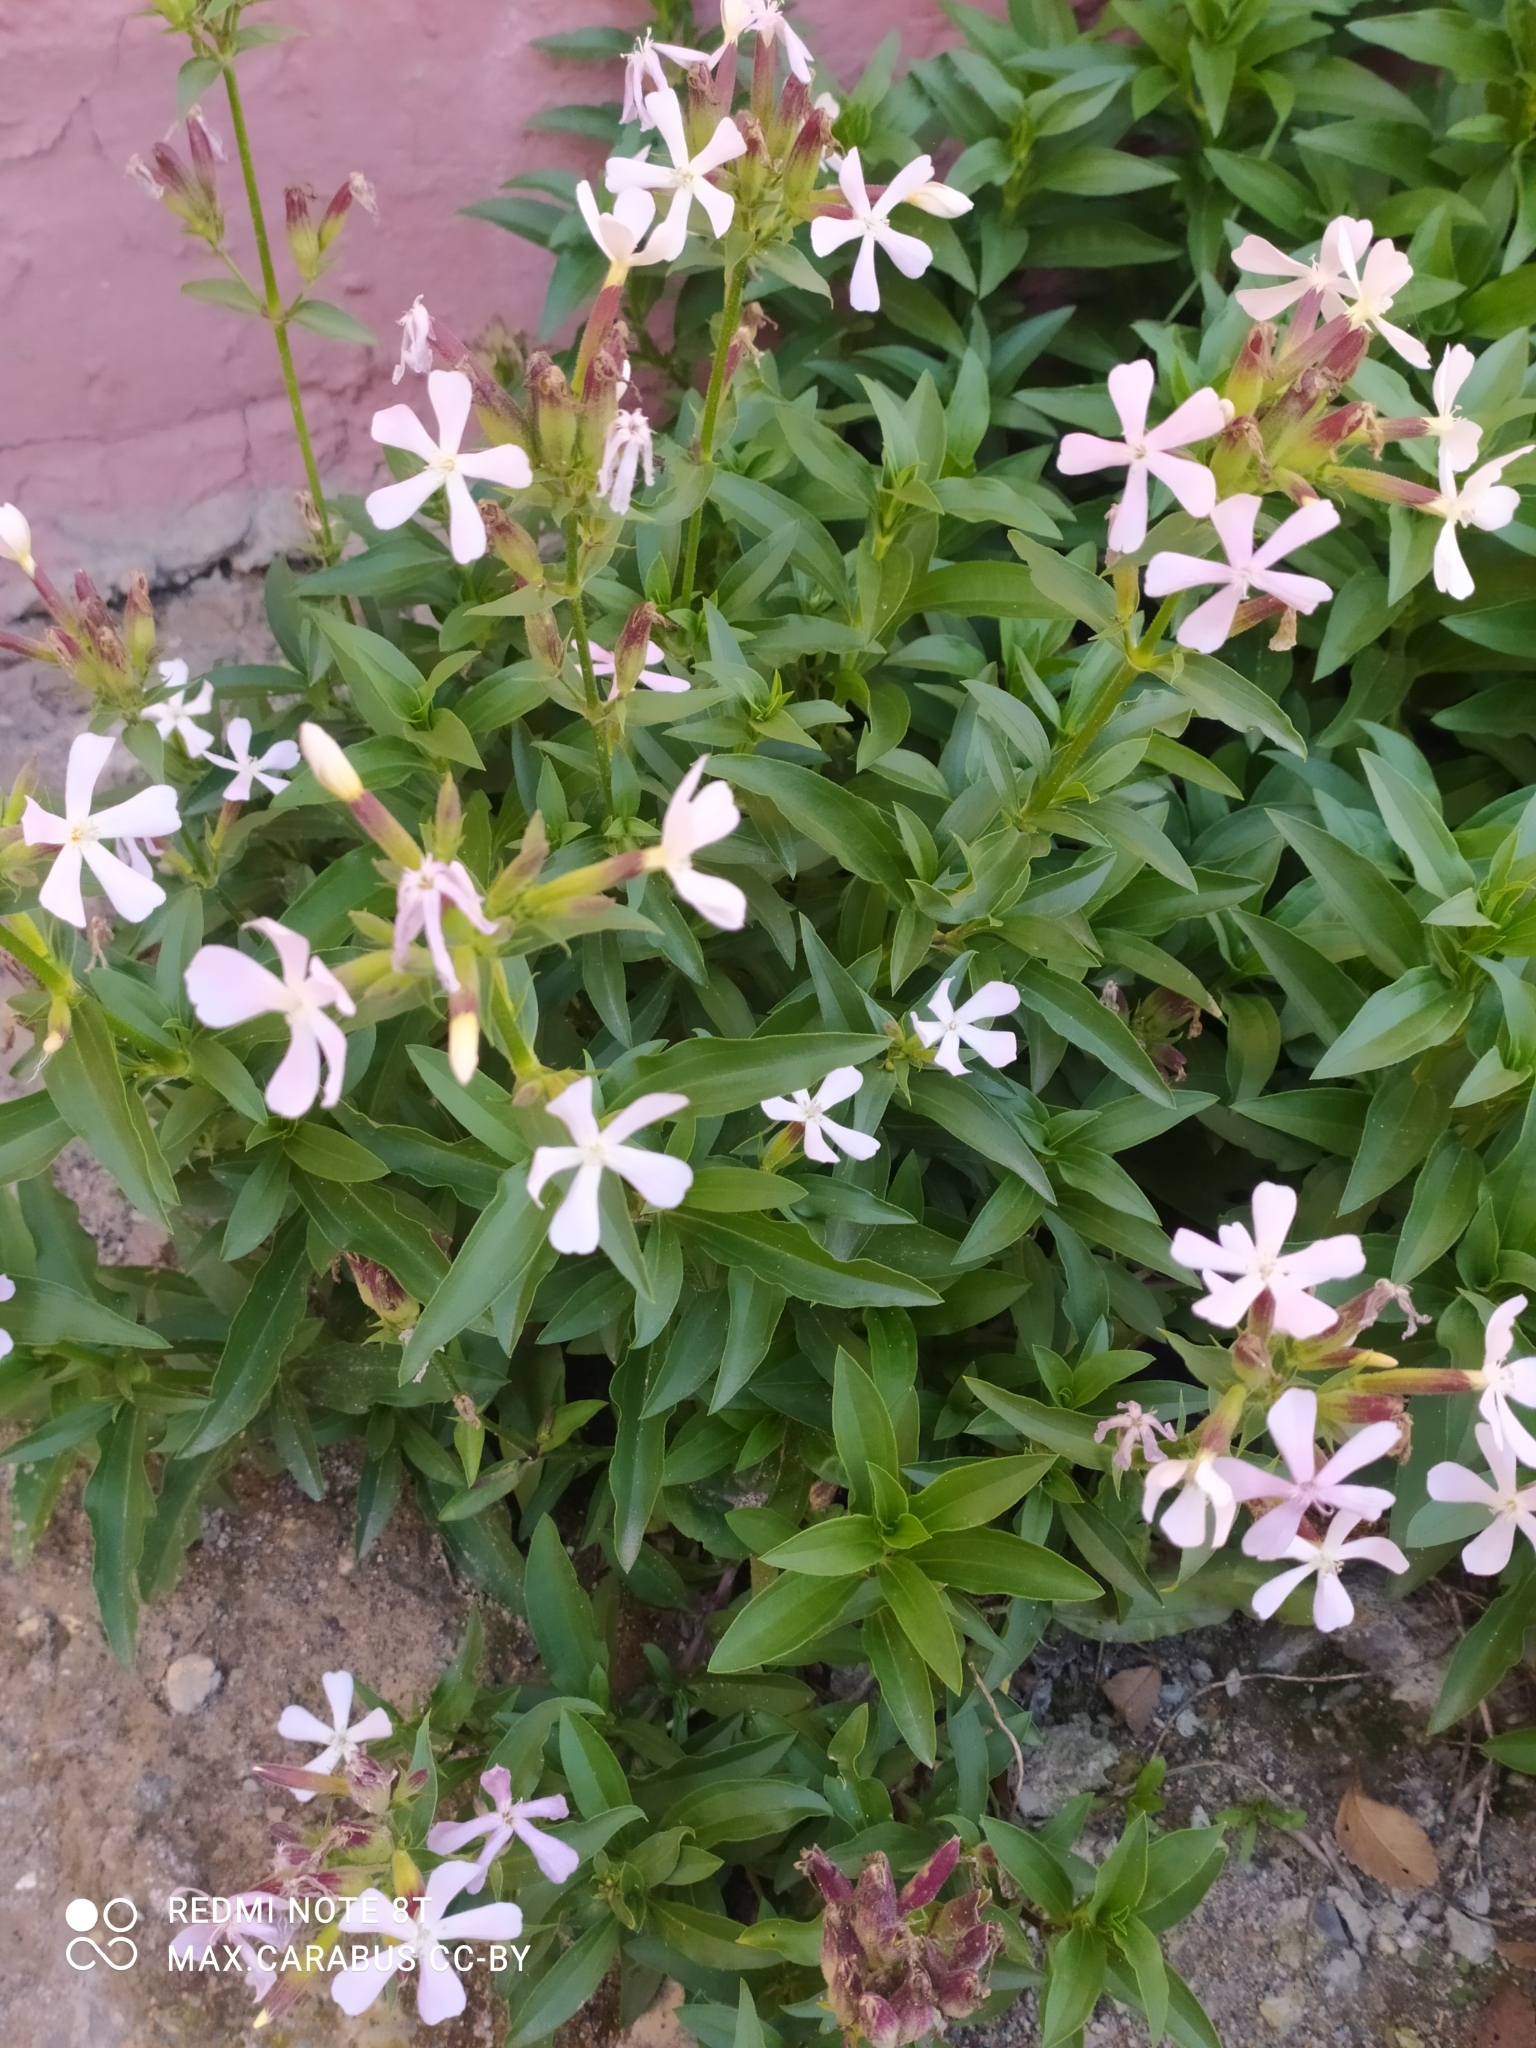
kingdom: Plantae
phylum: Tracheophyta
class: Magnoliopsida
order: Caryophyllales
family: Caryophyllaceae
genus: Saponaria
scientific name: Saponaria officinalis
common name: Soapwort
